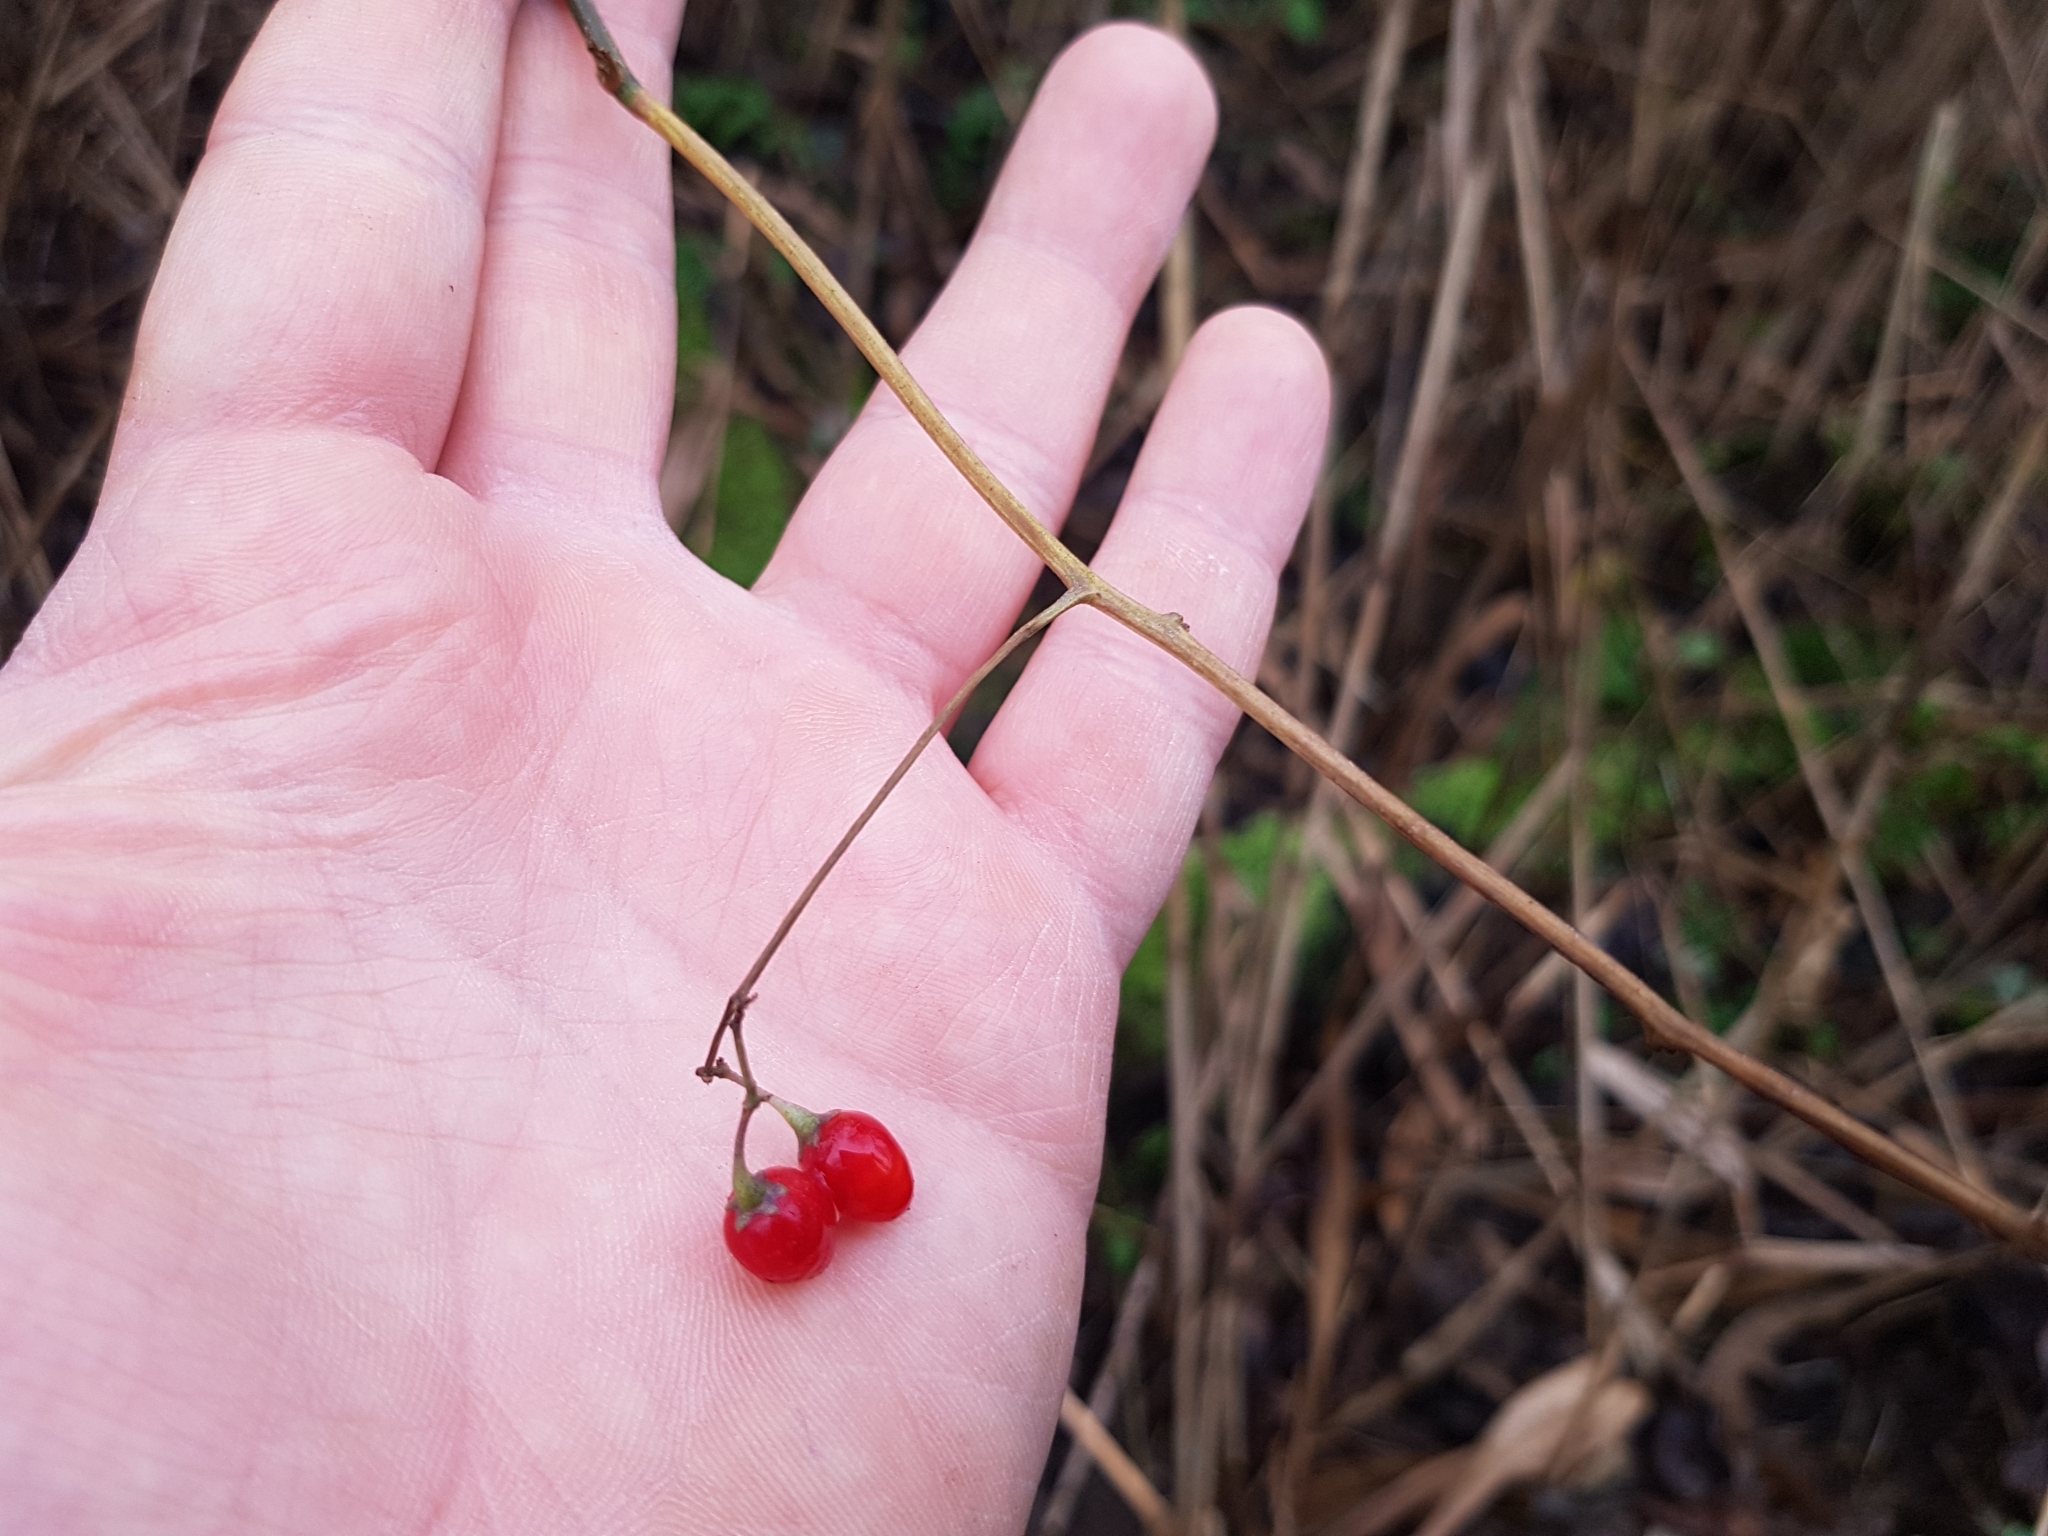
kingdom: Plantae
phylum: Tracheophyta
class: Magnoliopsida
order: Solanales
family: Solanaceae
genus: Solanum
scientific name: Solanum dulcamara
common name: Climbing nightshade
